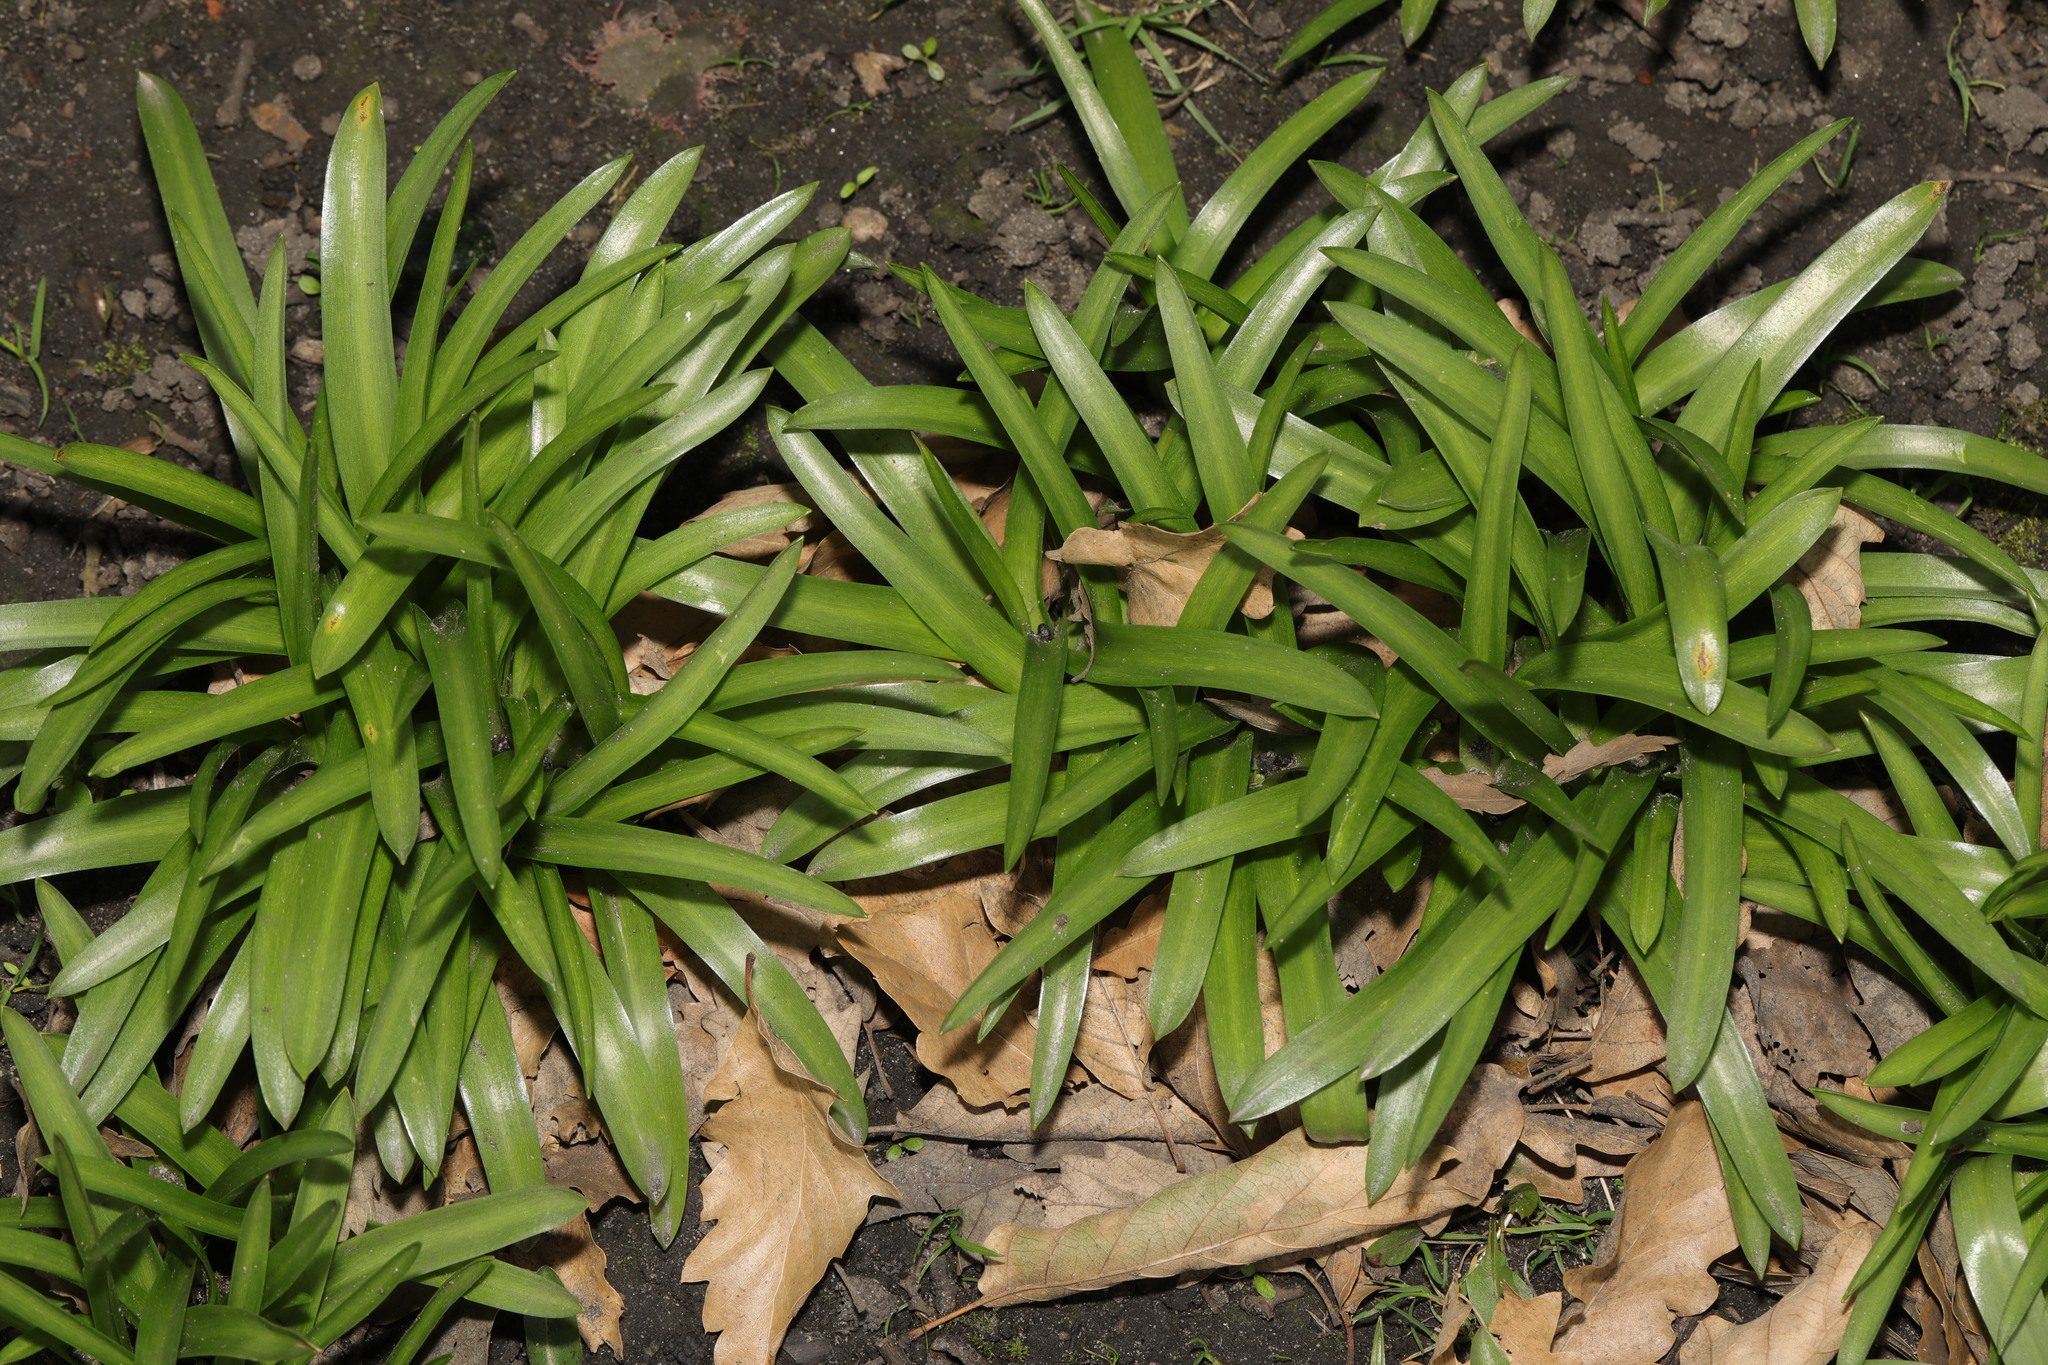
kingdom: Plantae
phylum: Tracheophyta
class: Liliopsida
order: Asparagales
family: Asparagaceae
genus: Hyacinthoides
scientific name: Hyacinthoides massartiana
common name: Hyacinthoides
